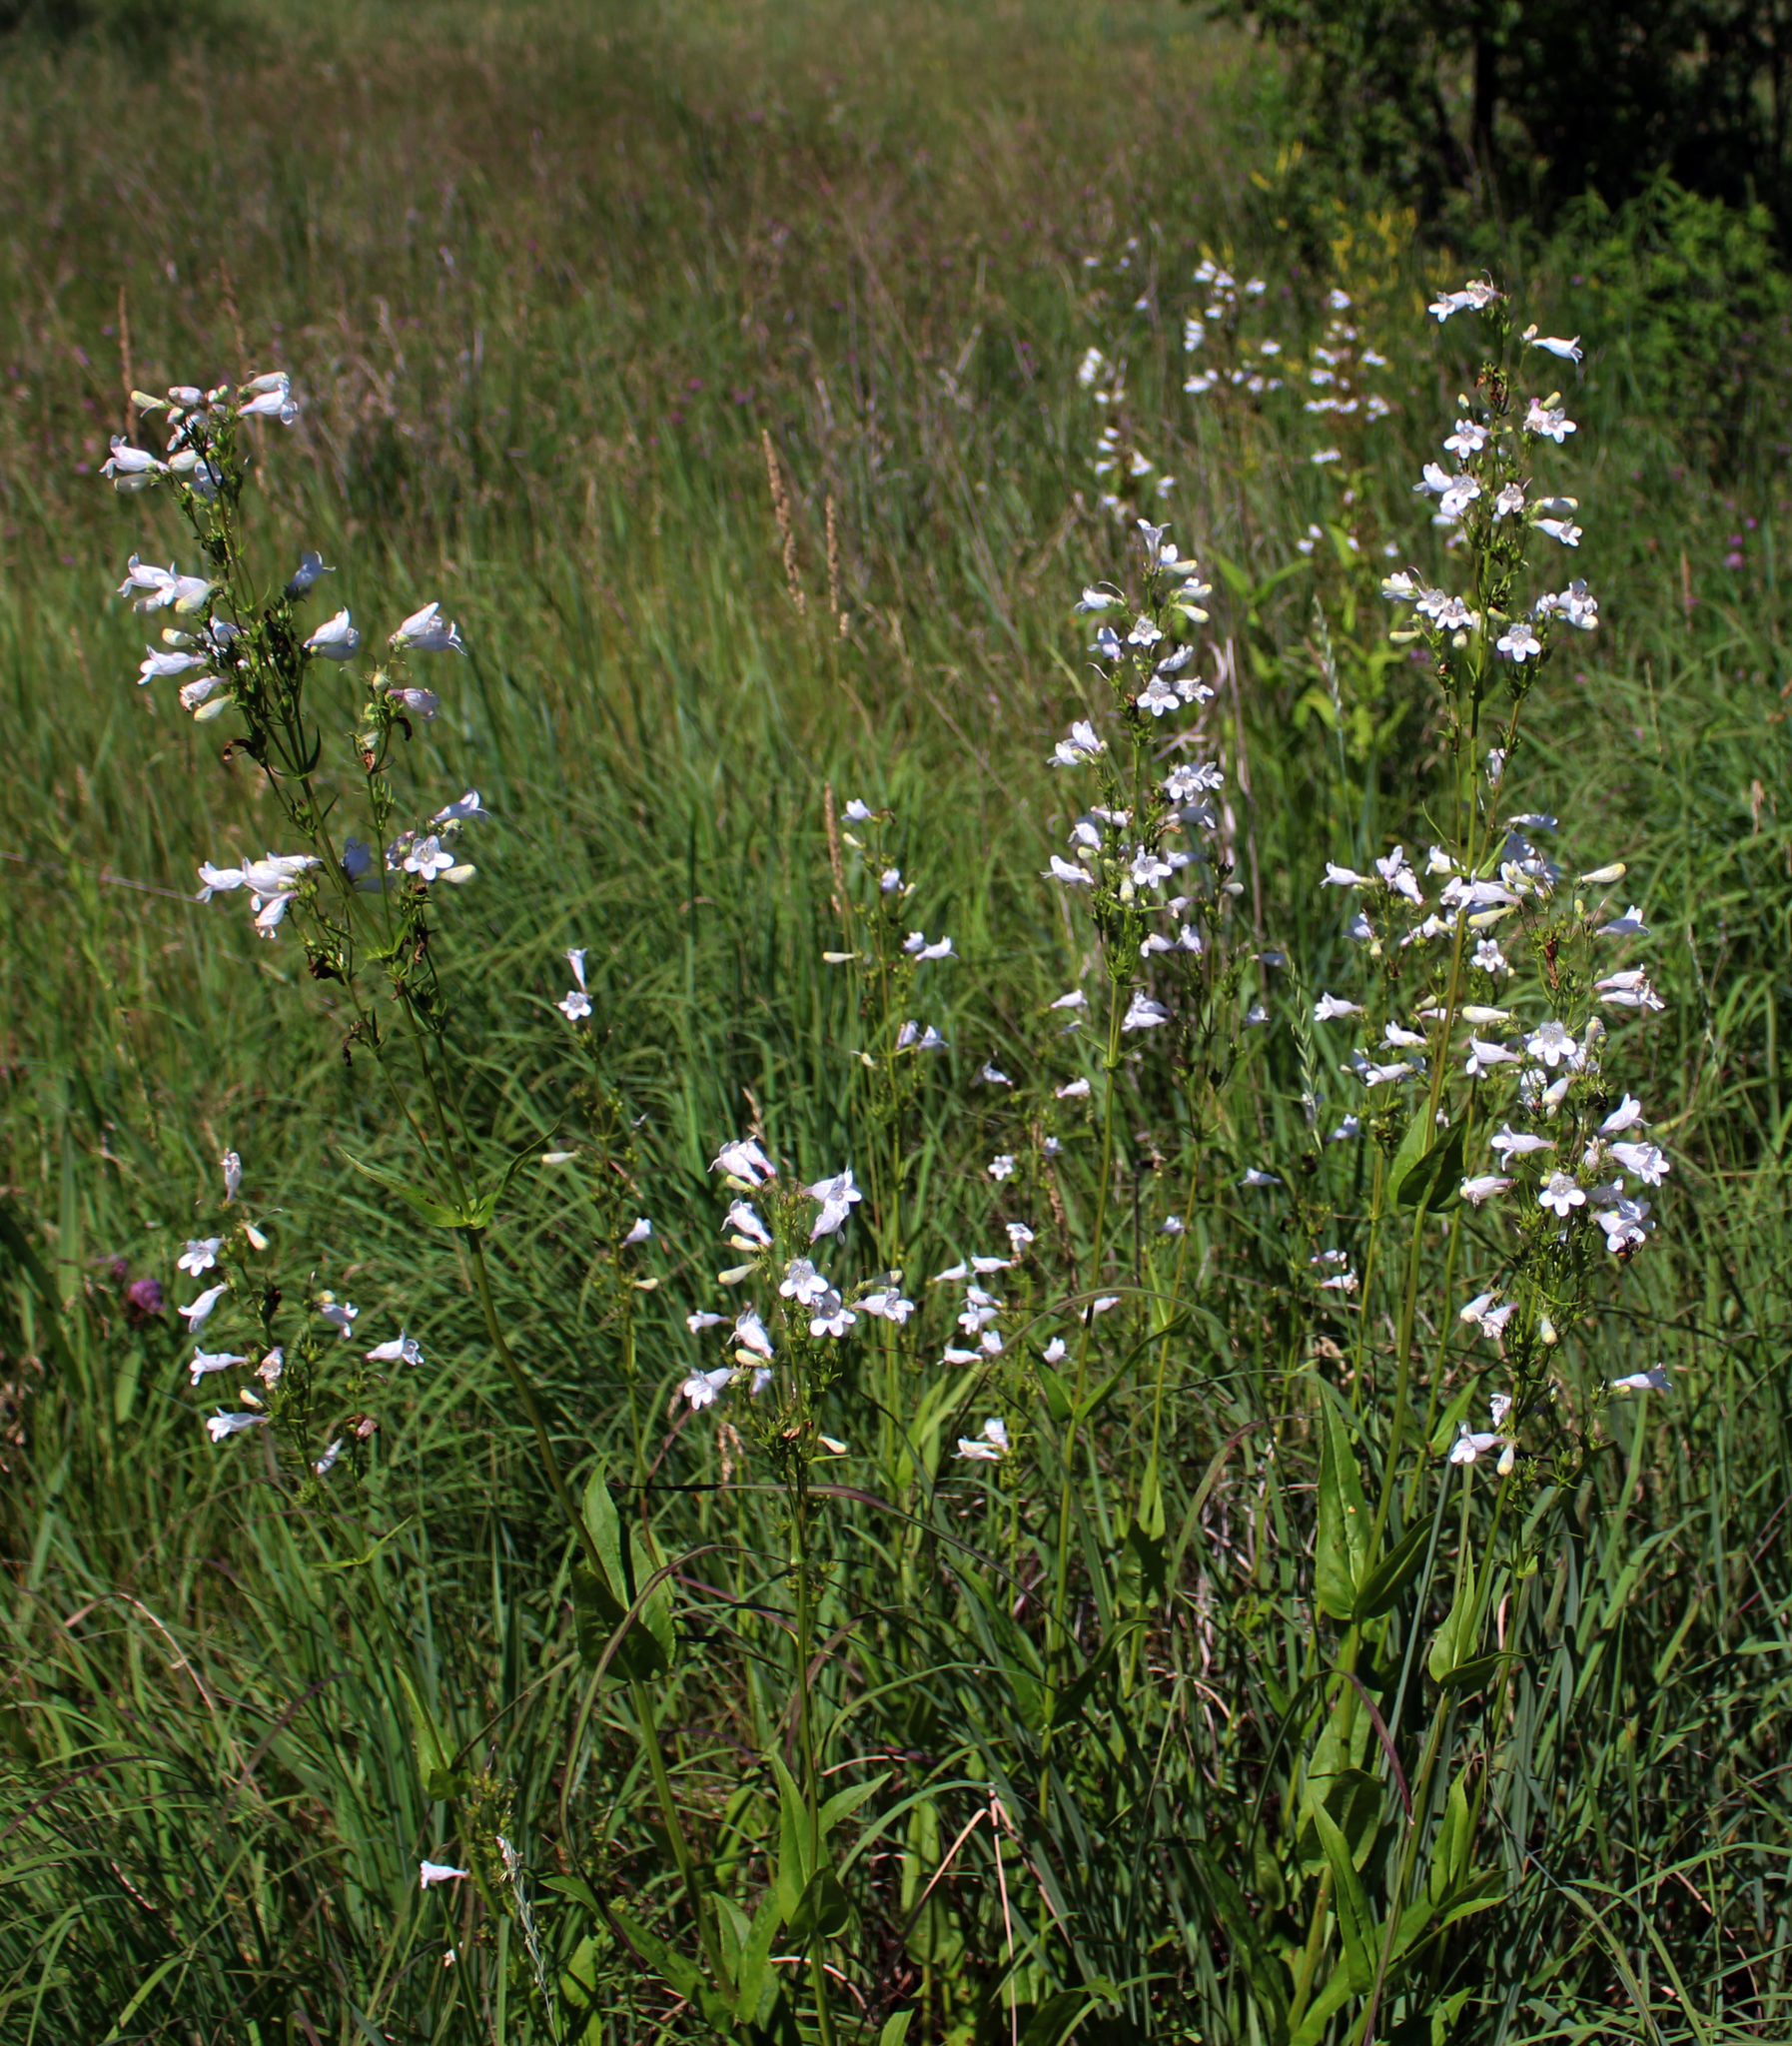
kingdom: Plantae
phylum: Tracheophyta
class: Magnoliopsida
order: Lamiales
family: Plantaginaceae
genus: Penstemon
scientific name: Penstemon digitalis
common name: Foxglove beardtongue
